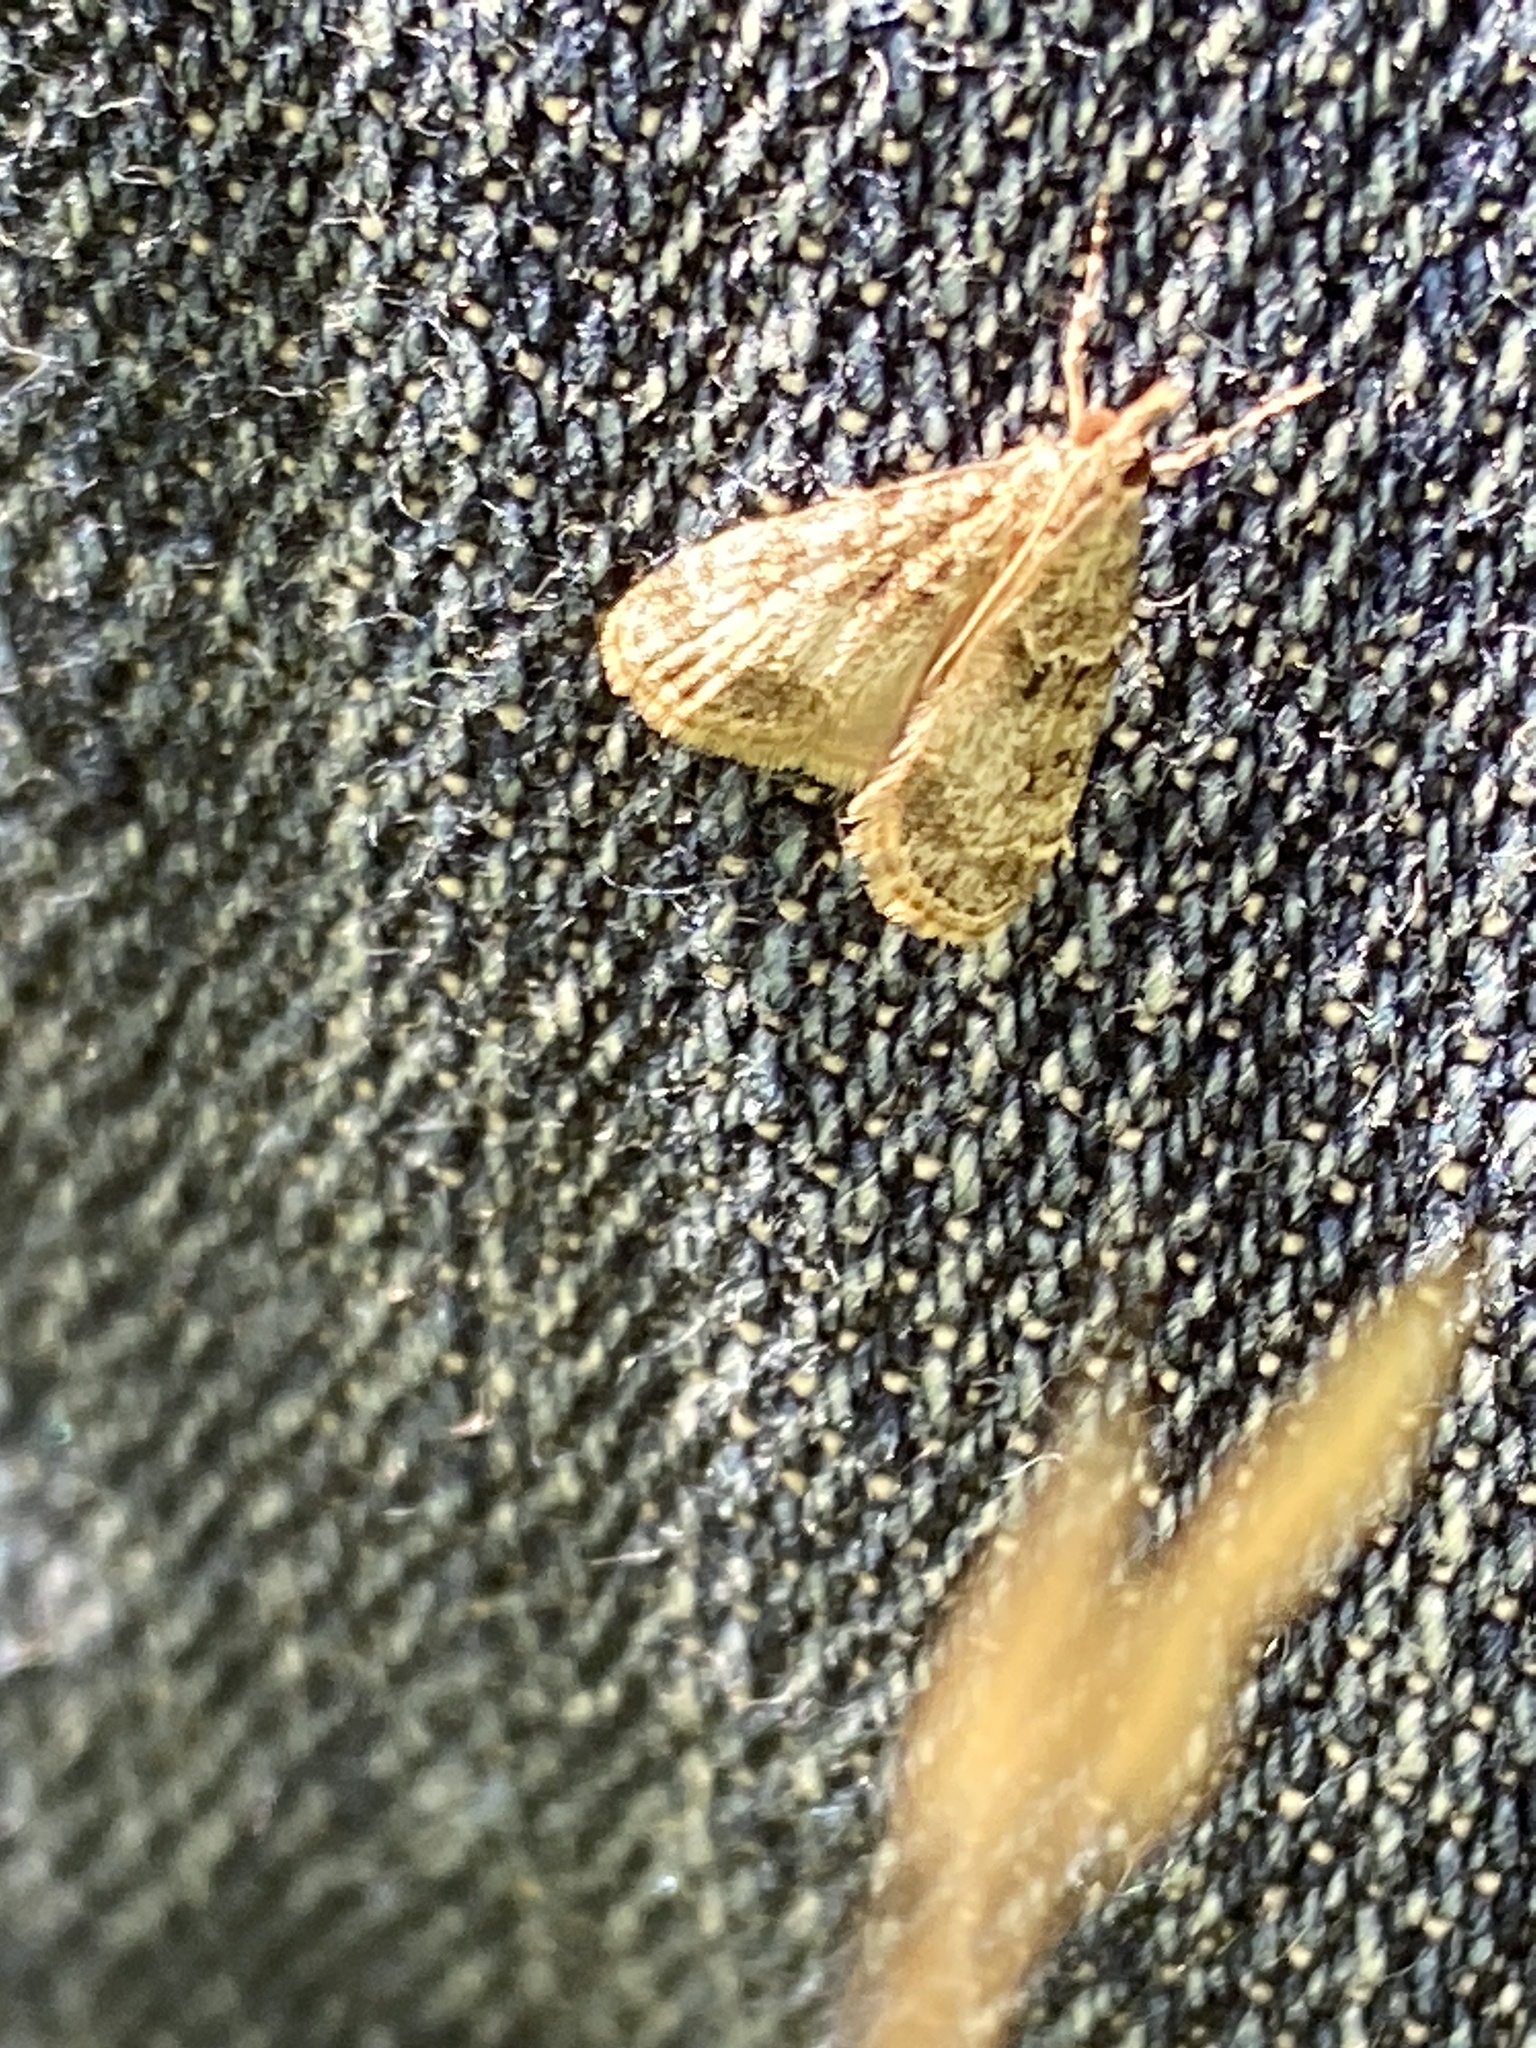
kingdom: Animalia
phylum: Arthropoda
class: Insecta
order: Lepidoptera
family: Crambidae
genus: Eudonia
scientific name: Eudonia mercurella
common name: Small grey
